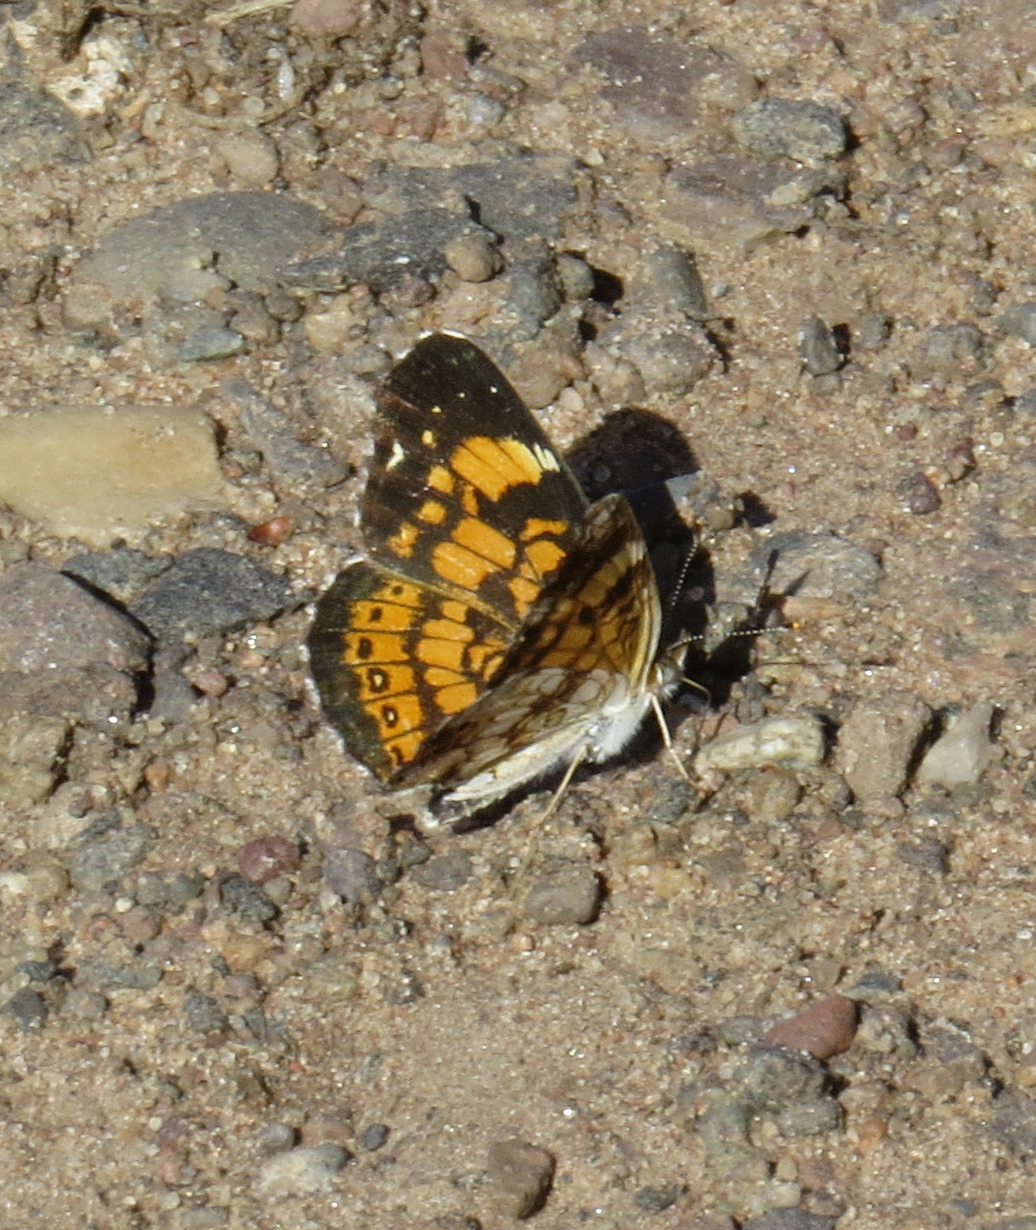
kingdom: Animalia
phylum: Arthropoda
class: Insecta
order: Lepidoptera
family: Nymphalidae
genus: Chlosyne
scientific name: Chlosyne nycteis
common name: Silvery checkerspot
